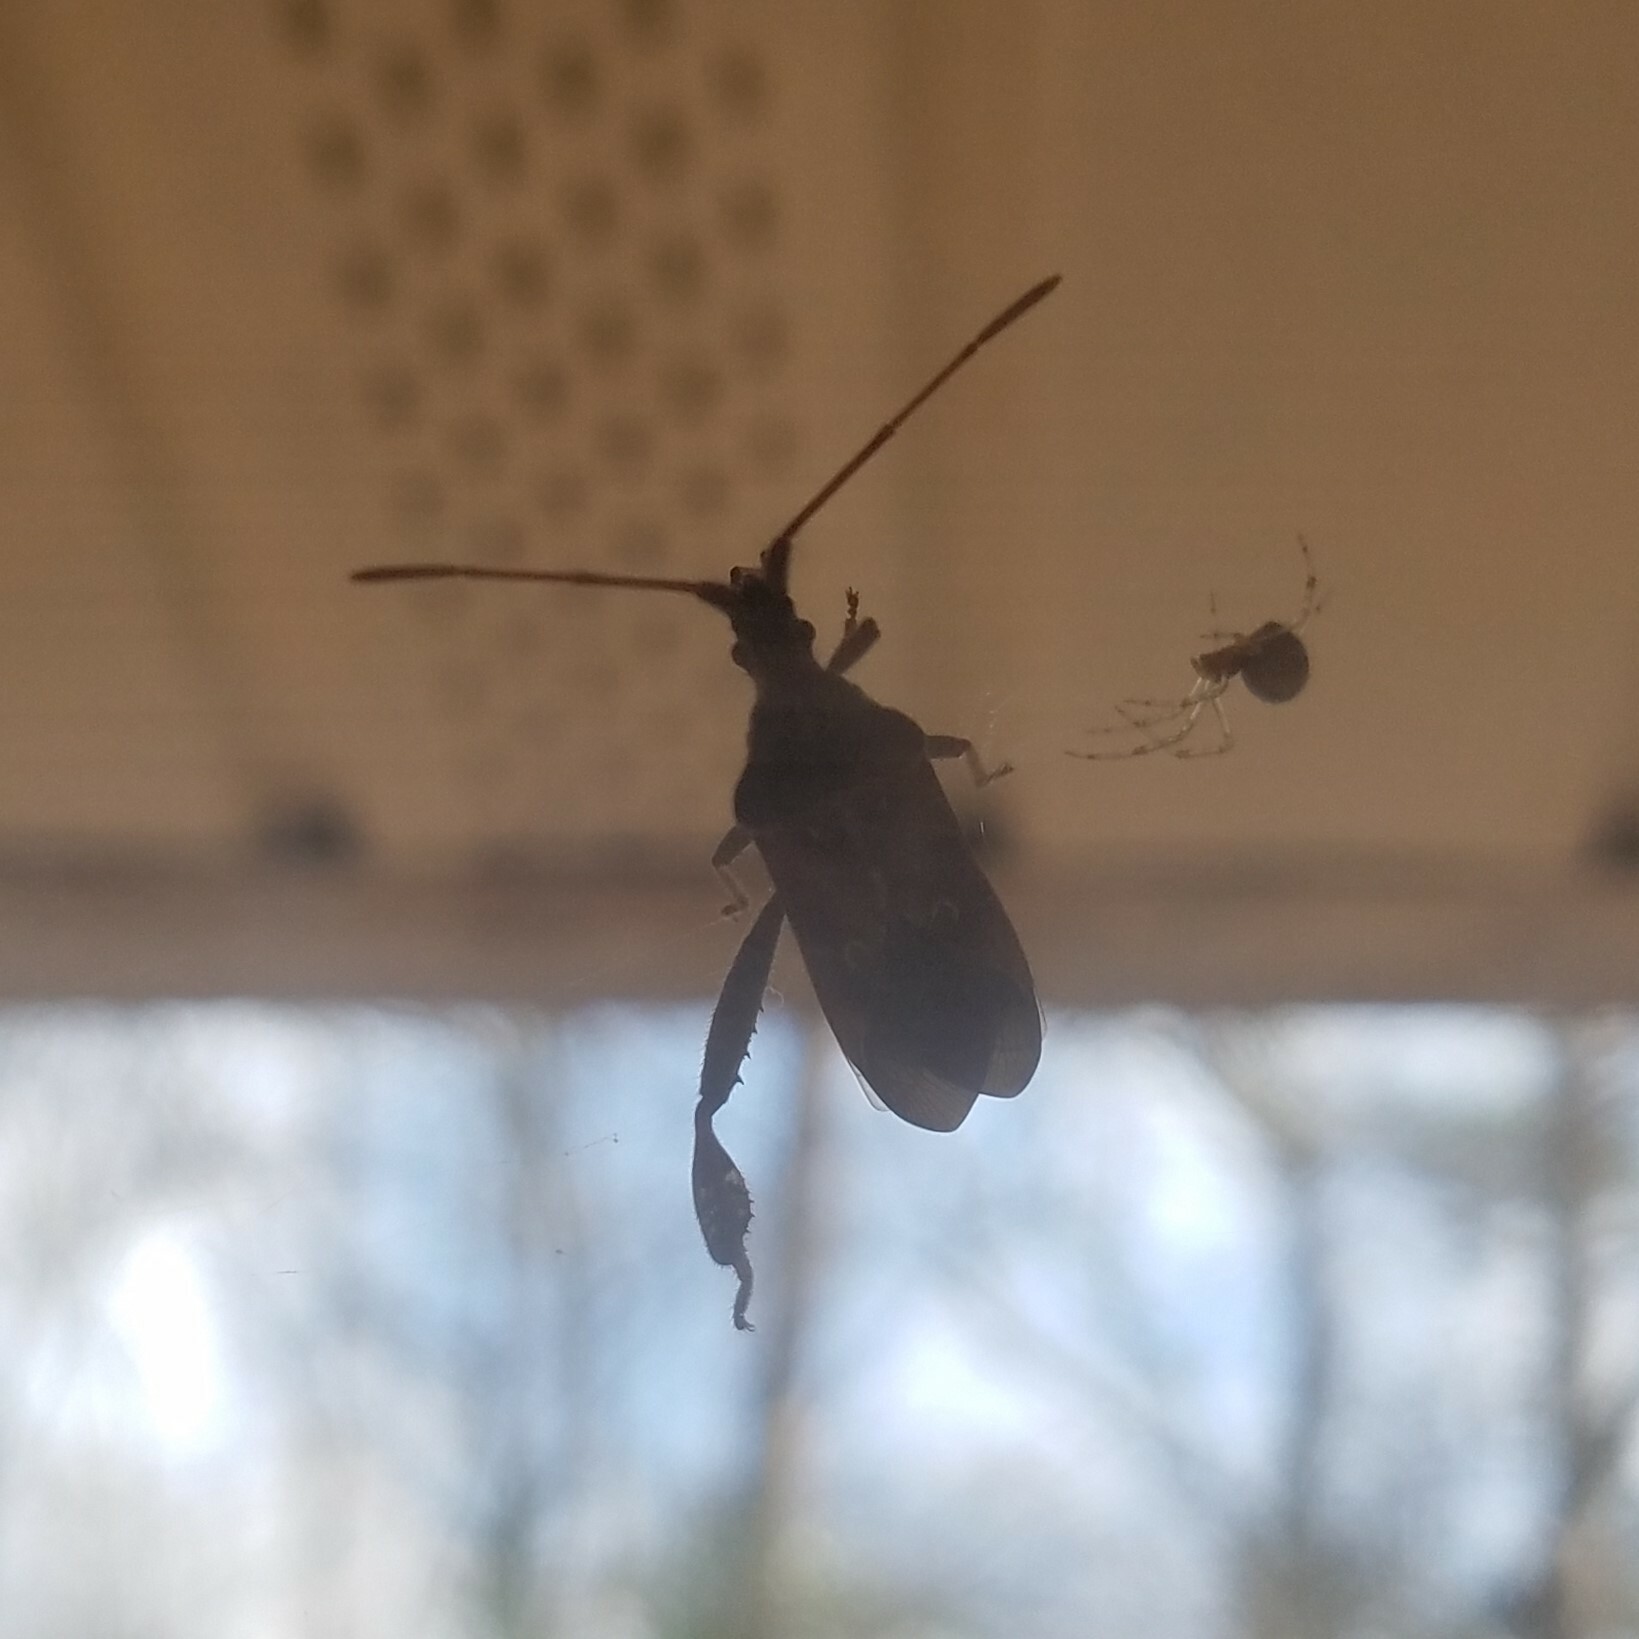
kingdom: Animalia
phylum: Arthropoda
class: Insecta
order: Hemiptera
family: Coreidae
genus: Leptoglossus
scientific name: Leptoglossus corculus
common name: Southern pine seed bug
